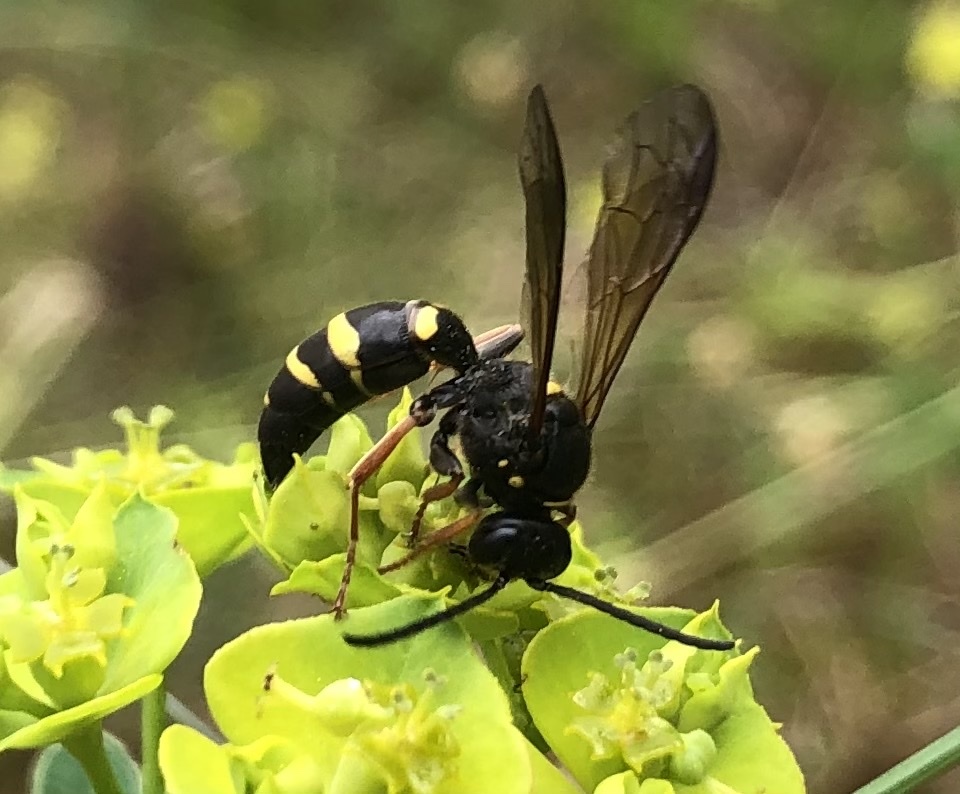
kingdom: Animalia
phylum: Arthropoda
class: Insecta
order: Hymenoptera
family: Crabronidae
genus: Argogorytes
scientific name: Argogorytes mystaceus
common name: Field digger wasp
